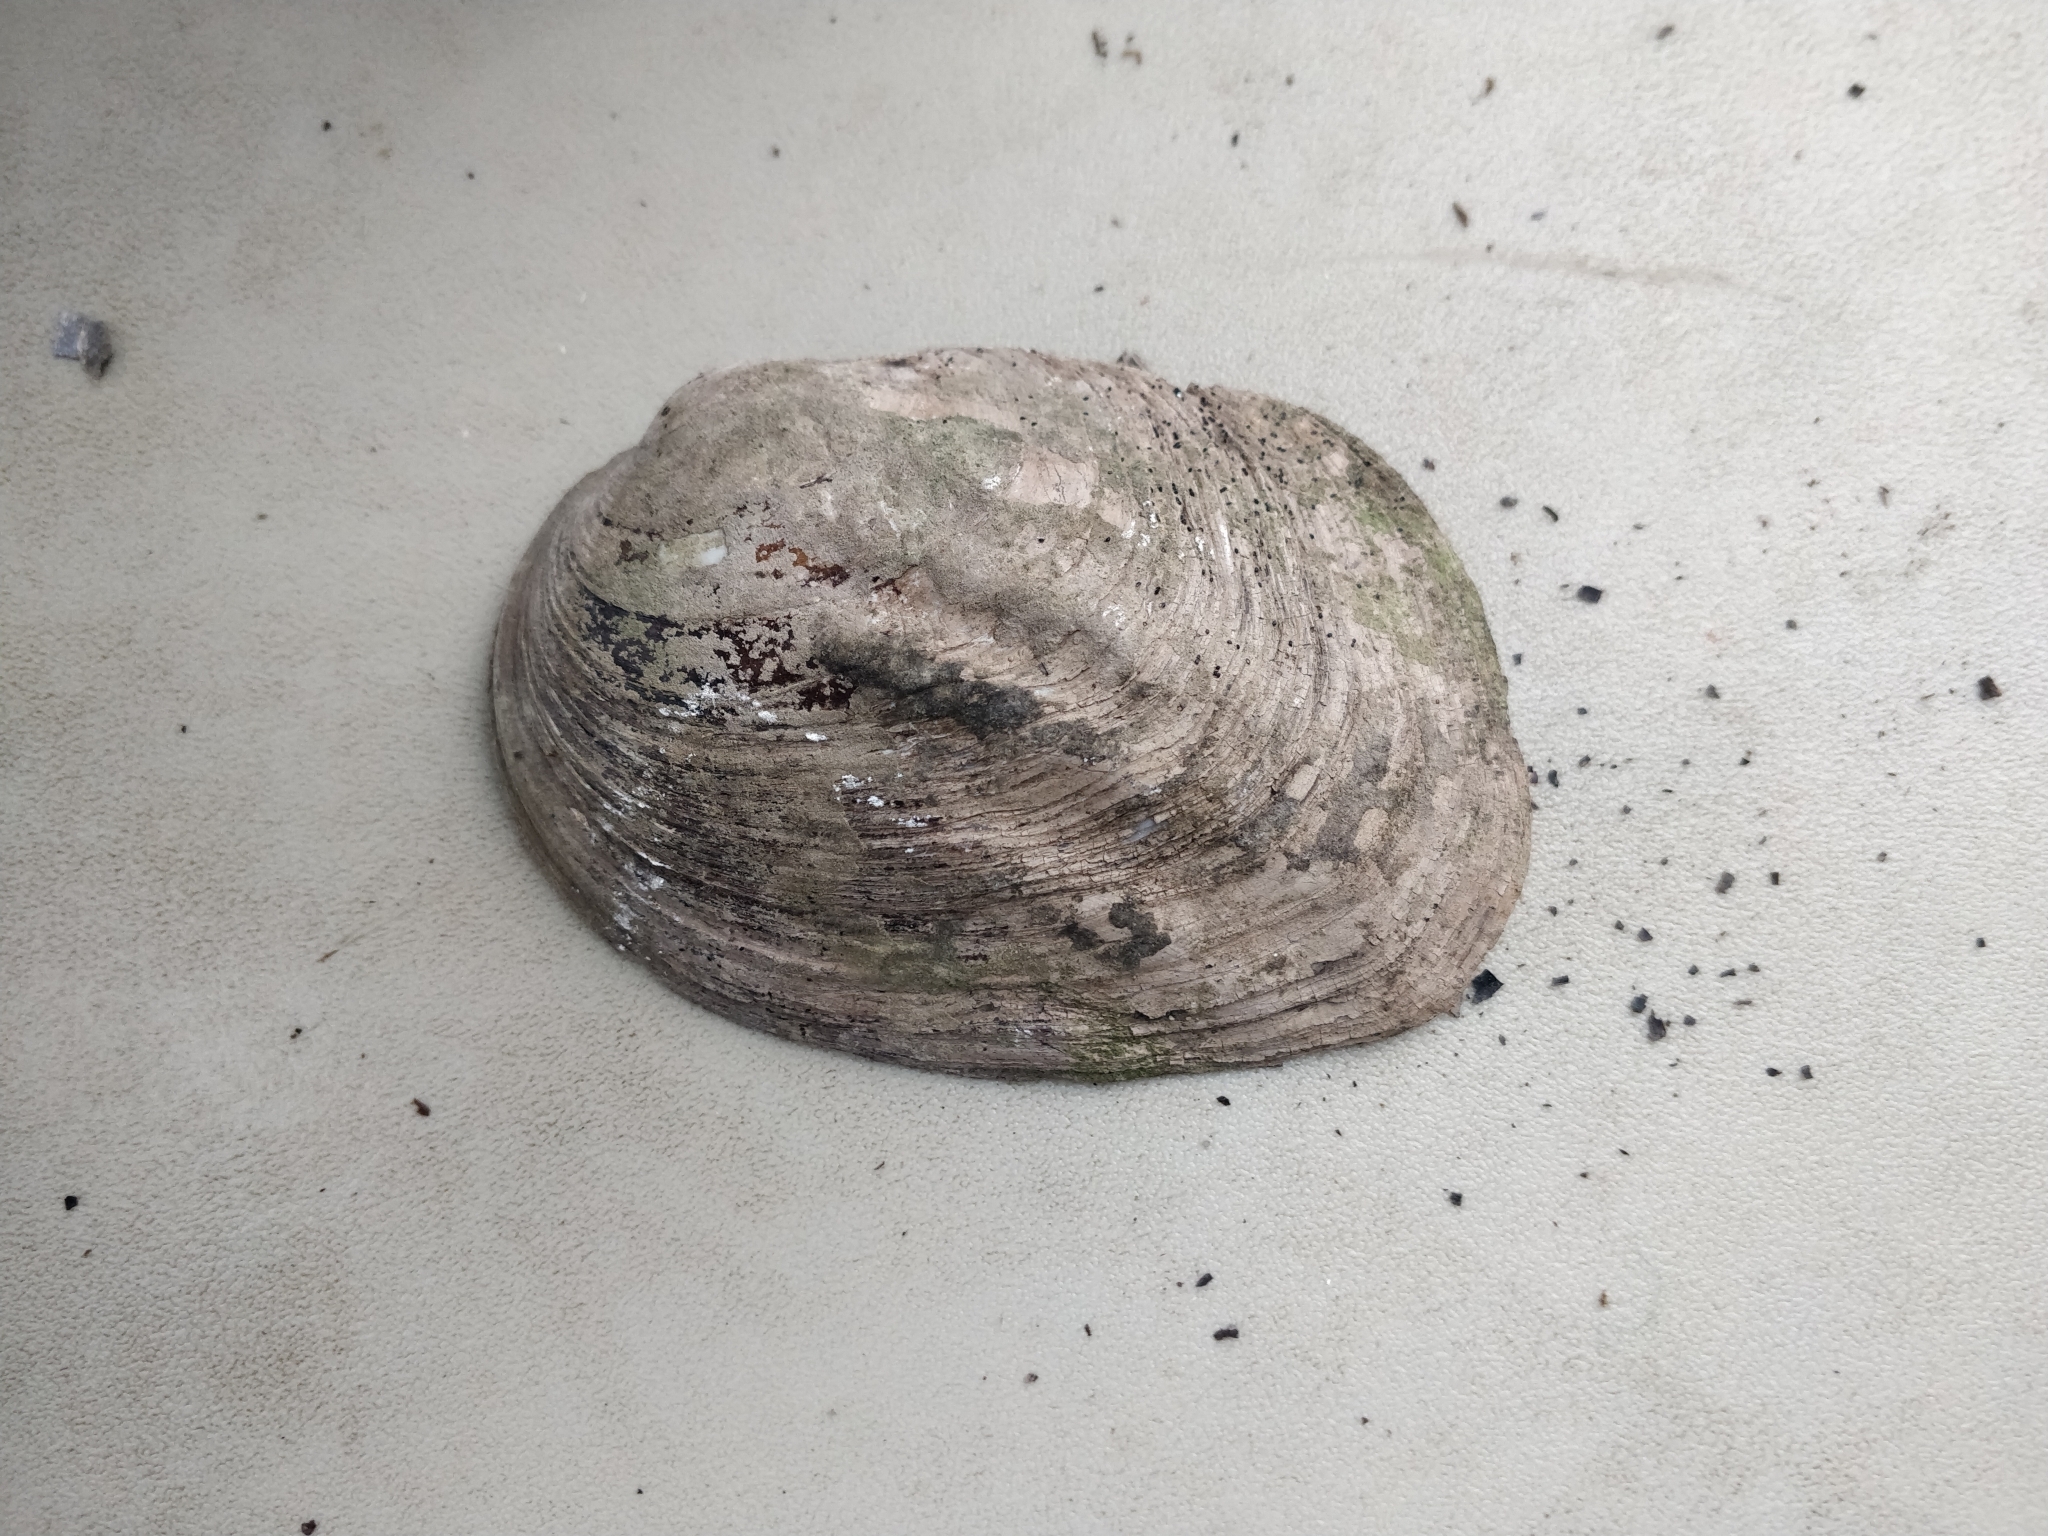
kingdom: Animalia
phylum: Mollusca
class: Bivalvia
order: Unionida
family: Unionidae
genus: Amblema
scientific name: Amblema plicata
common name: Threeridge
